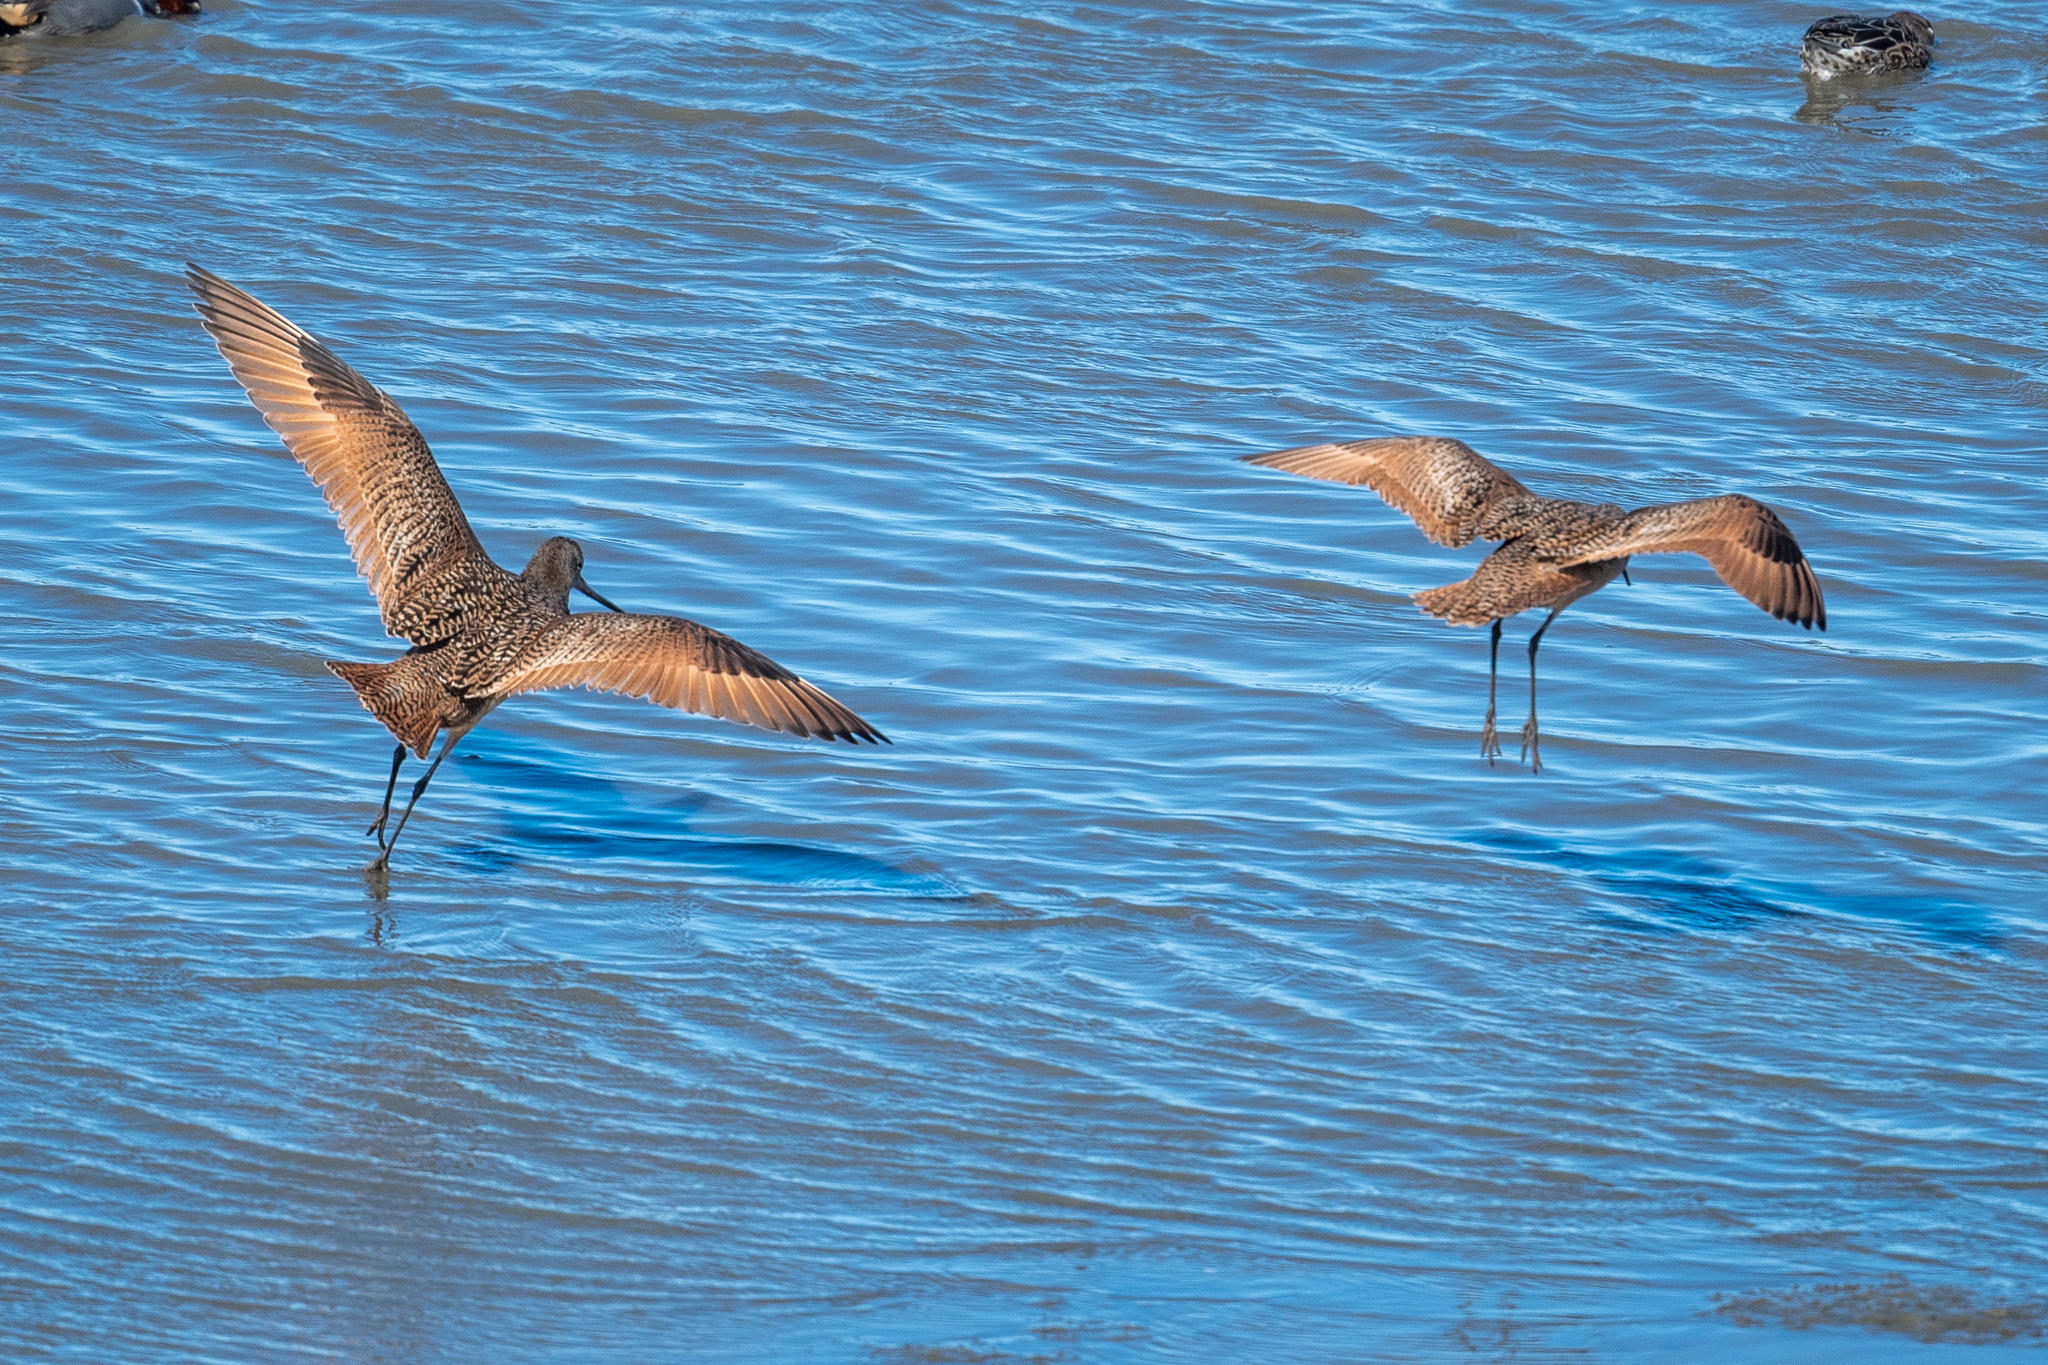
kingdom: Animalia
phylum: Chordata
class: Aves
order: Charadriiformes
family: Scolopacidae
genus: Limosa
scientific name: Limosa fedoa
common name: Marbled godwit
